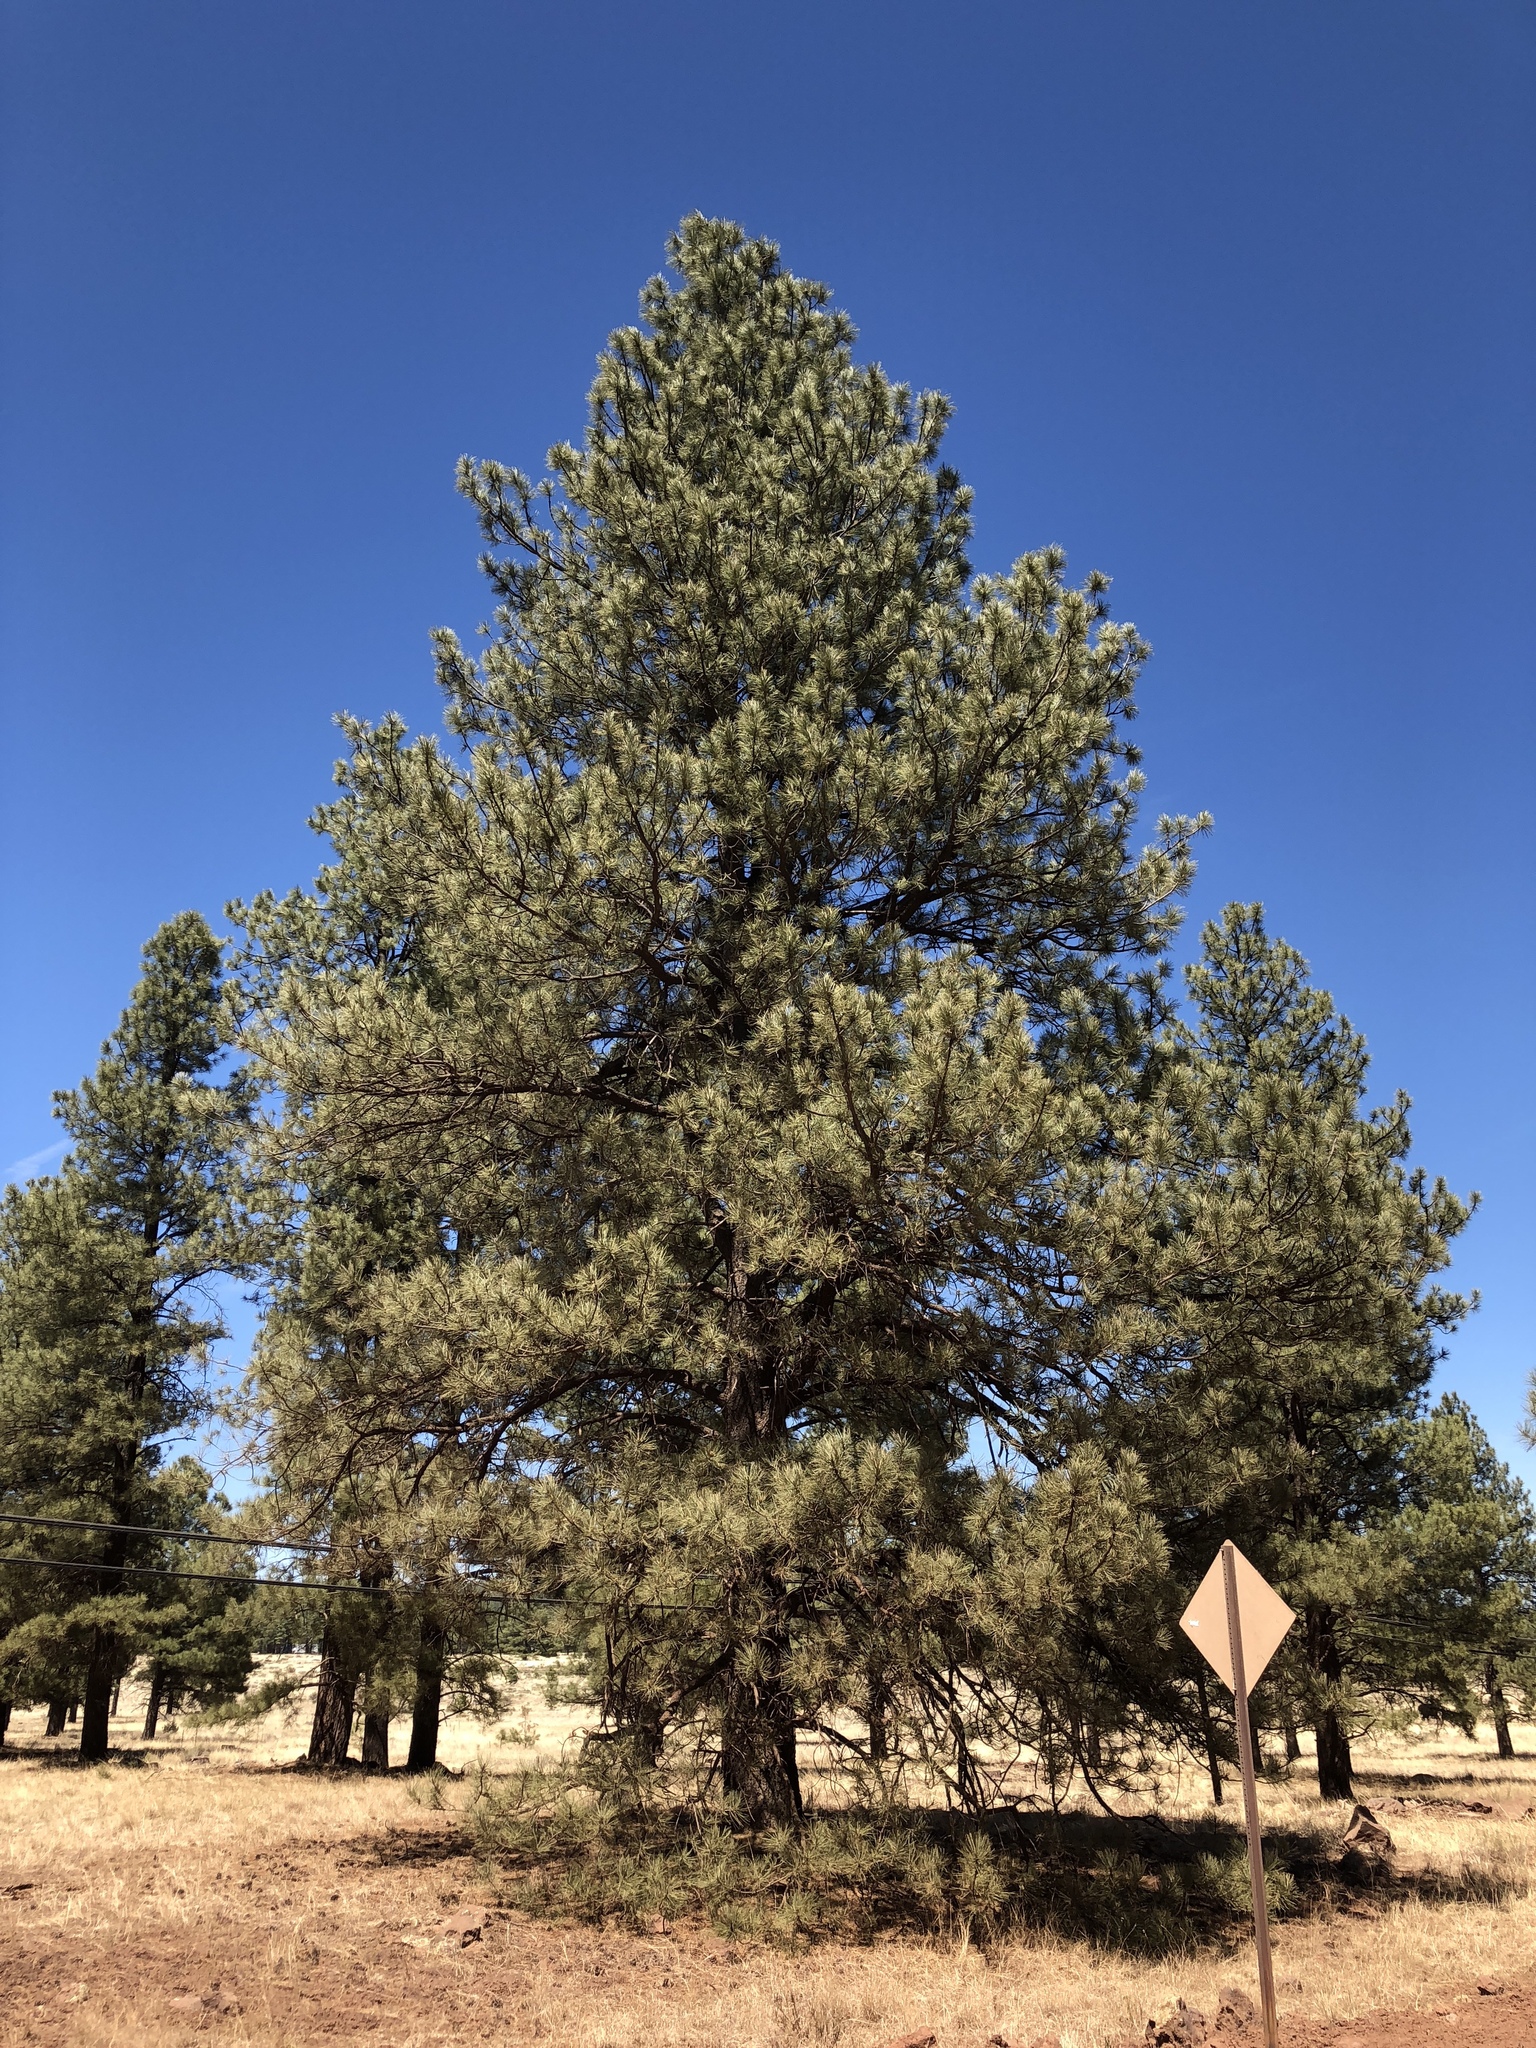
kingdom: Plantae
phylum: Tracheophyta
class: Pinopsida
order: Pinales
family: Pinaceae
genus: Pinus
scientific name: Pinus ponderosa
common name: Western yellow-pine
